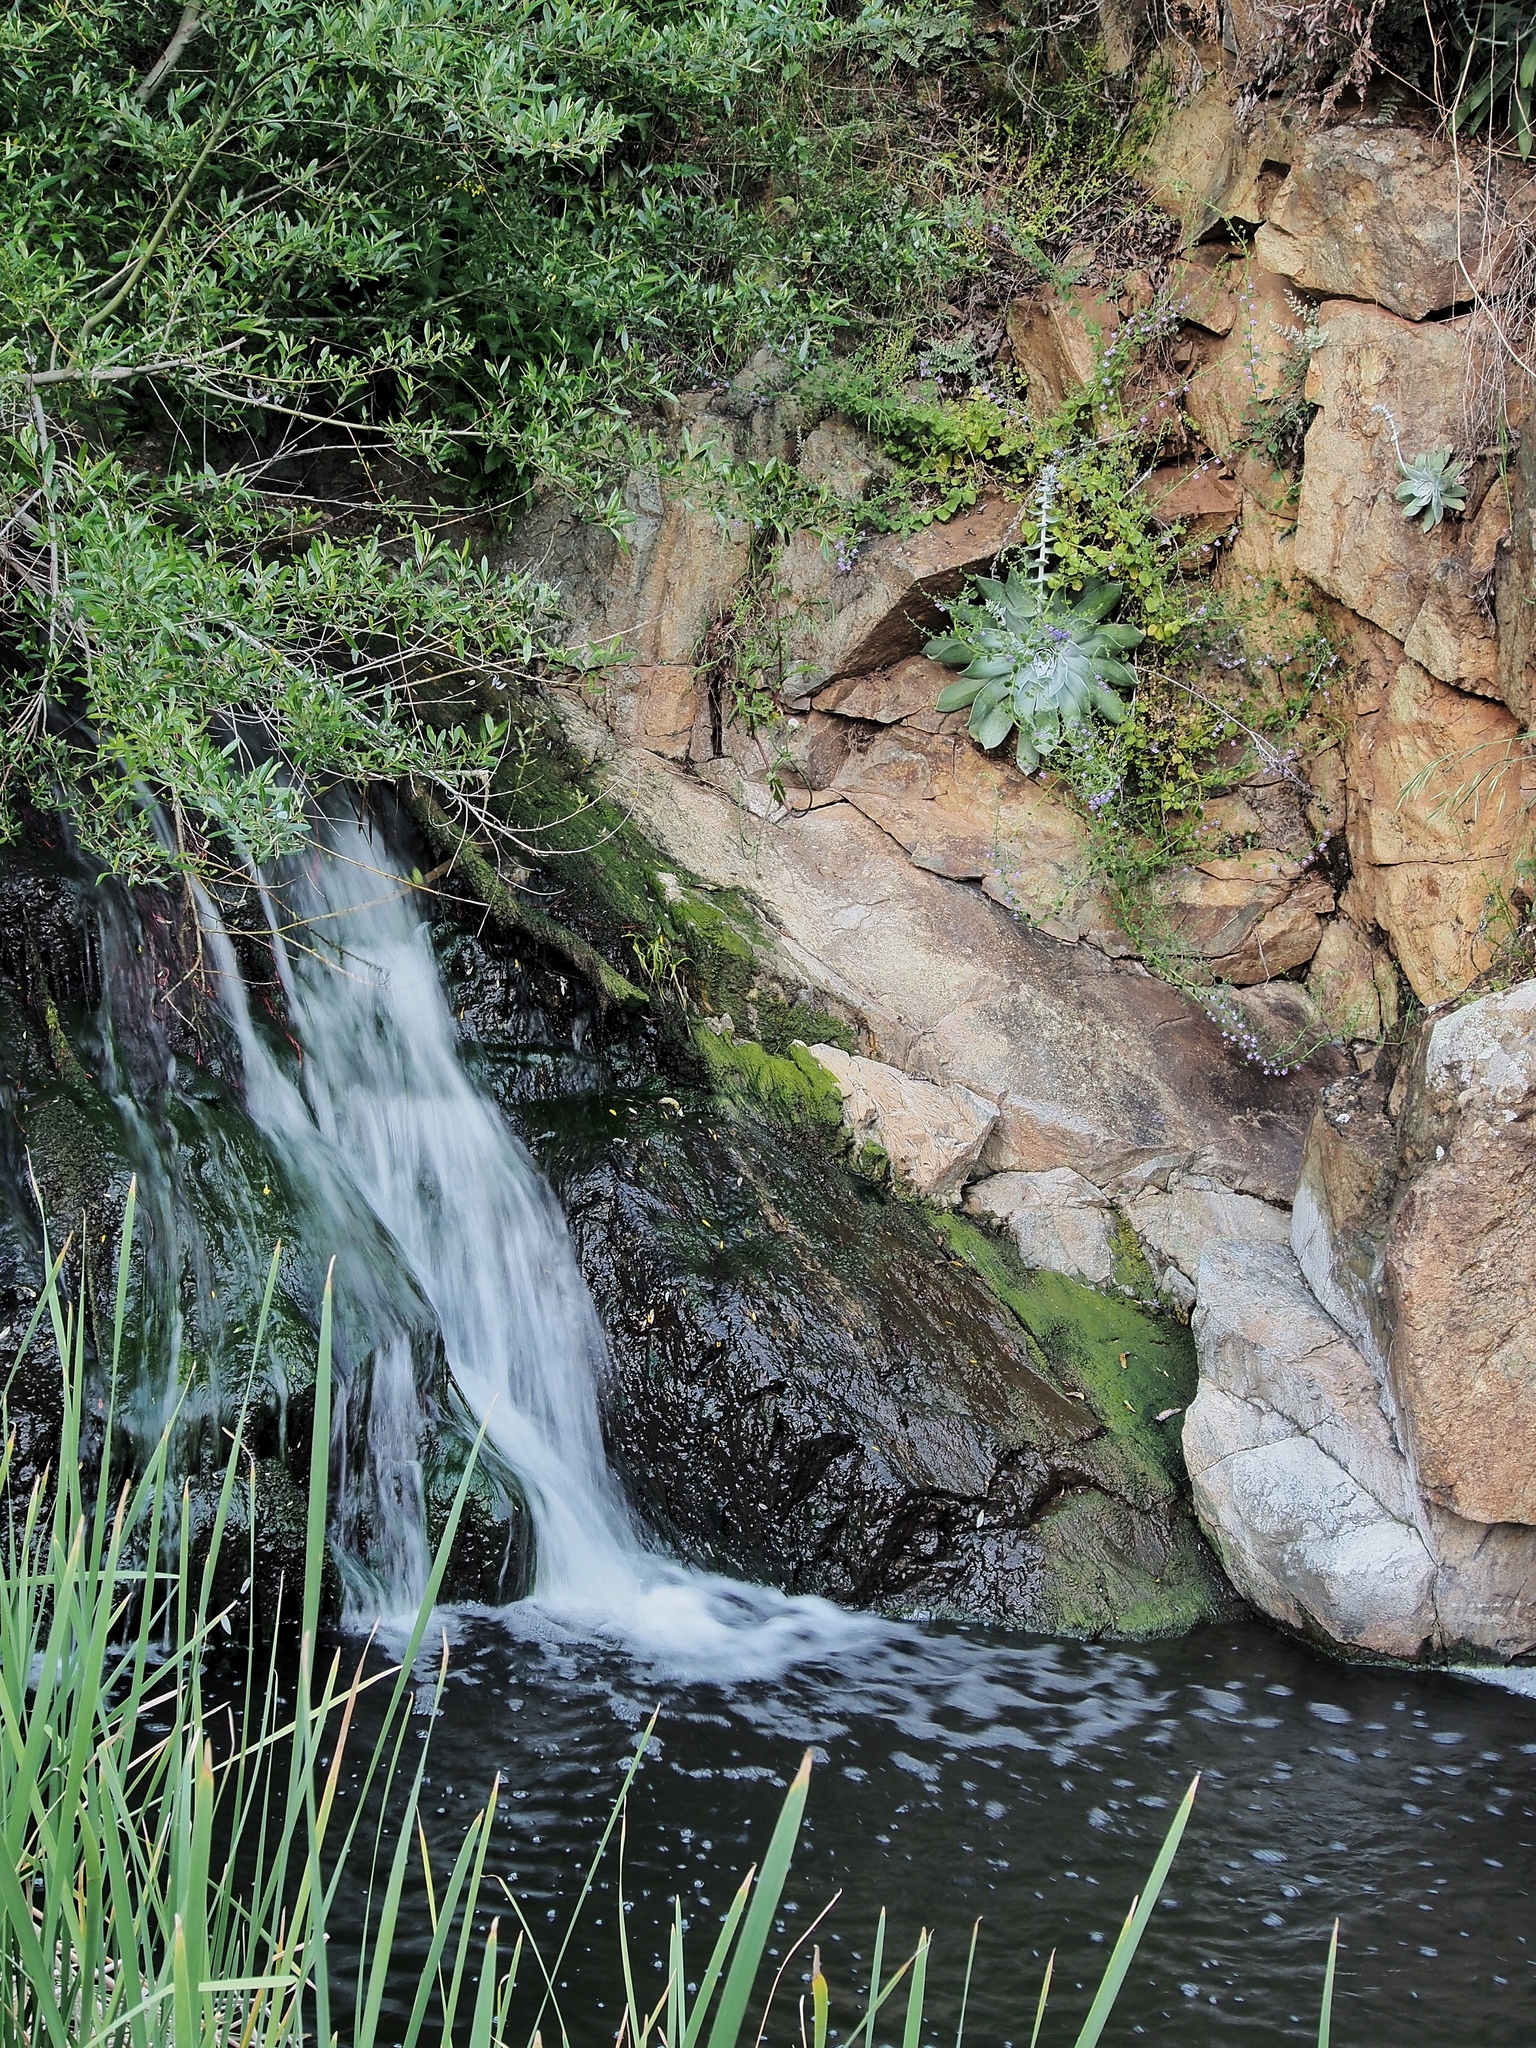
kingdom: Plantae
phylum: Tracheophyta
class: Magnoliopsida
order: Saxifragales
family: Crassulaceae
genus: Dudleya
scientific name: Dudleya pulverulenta
